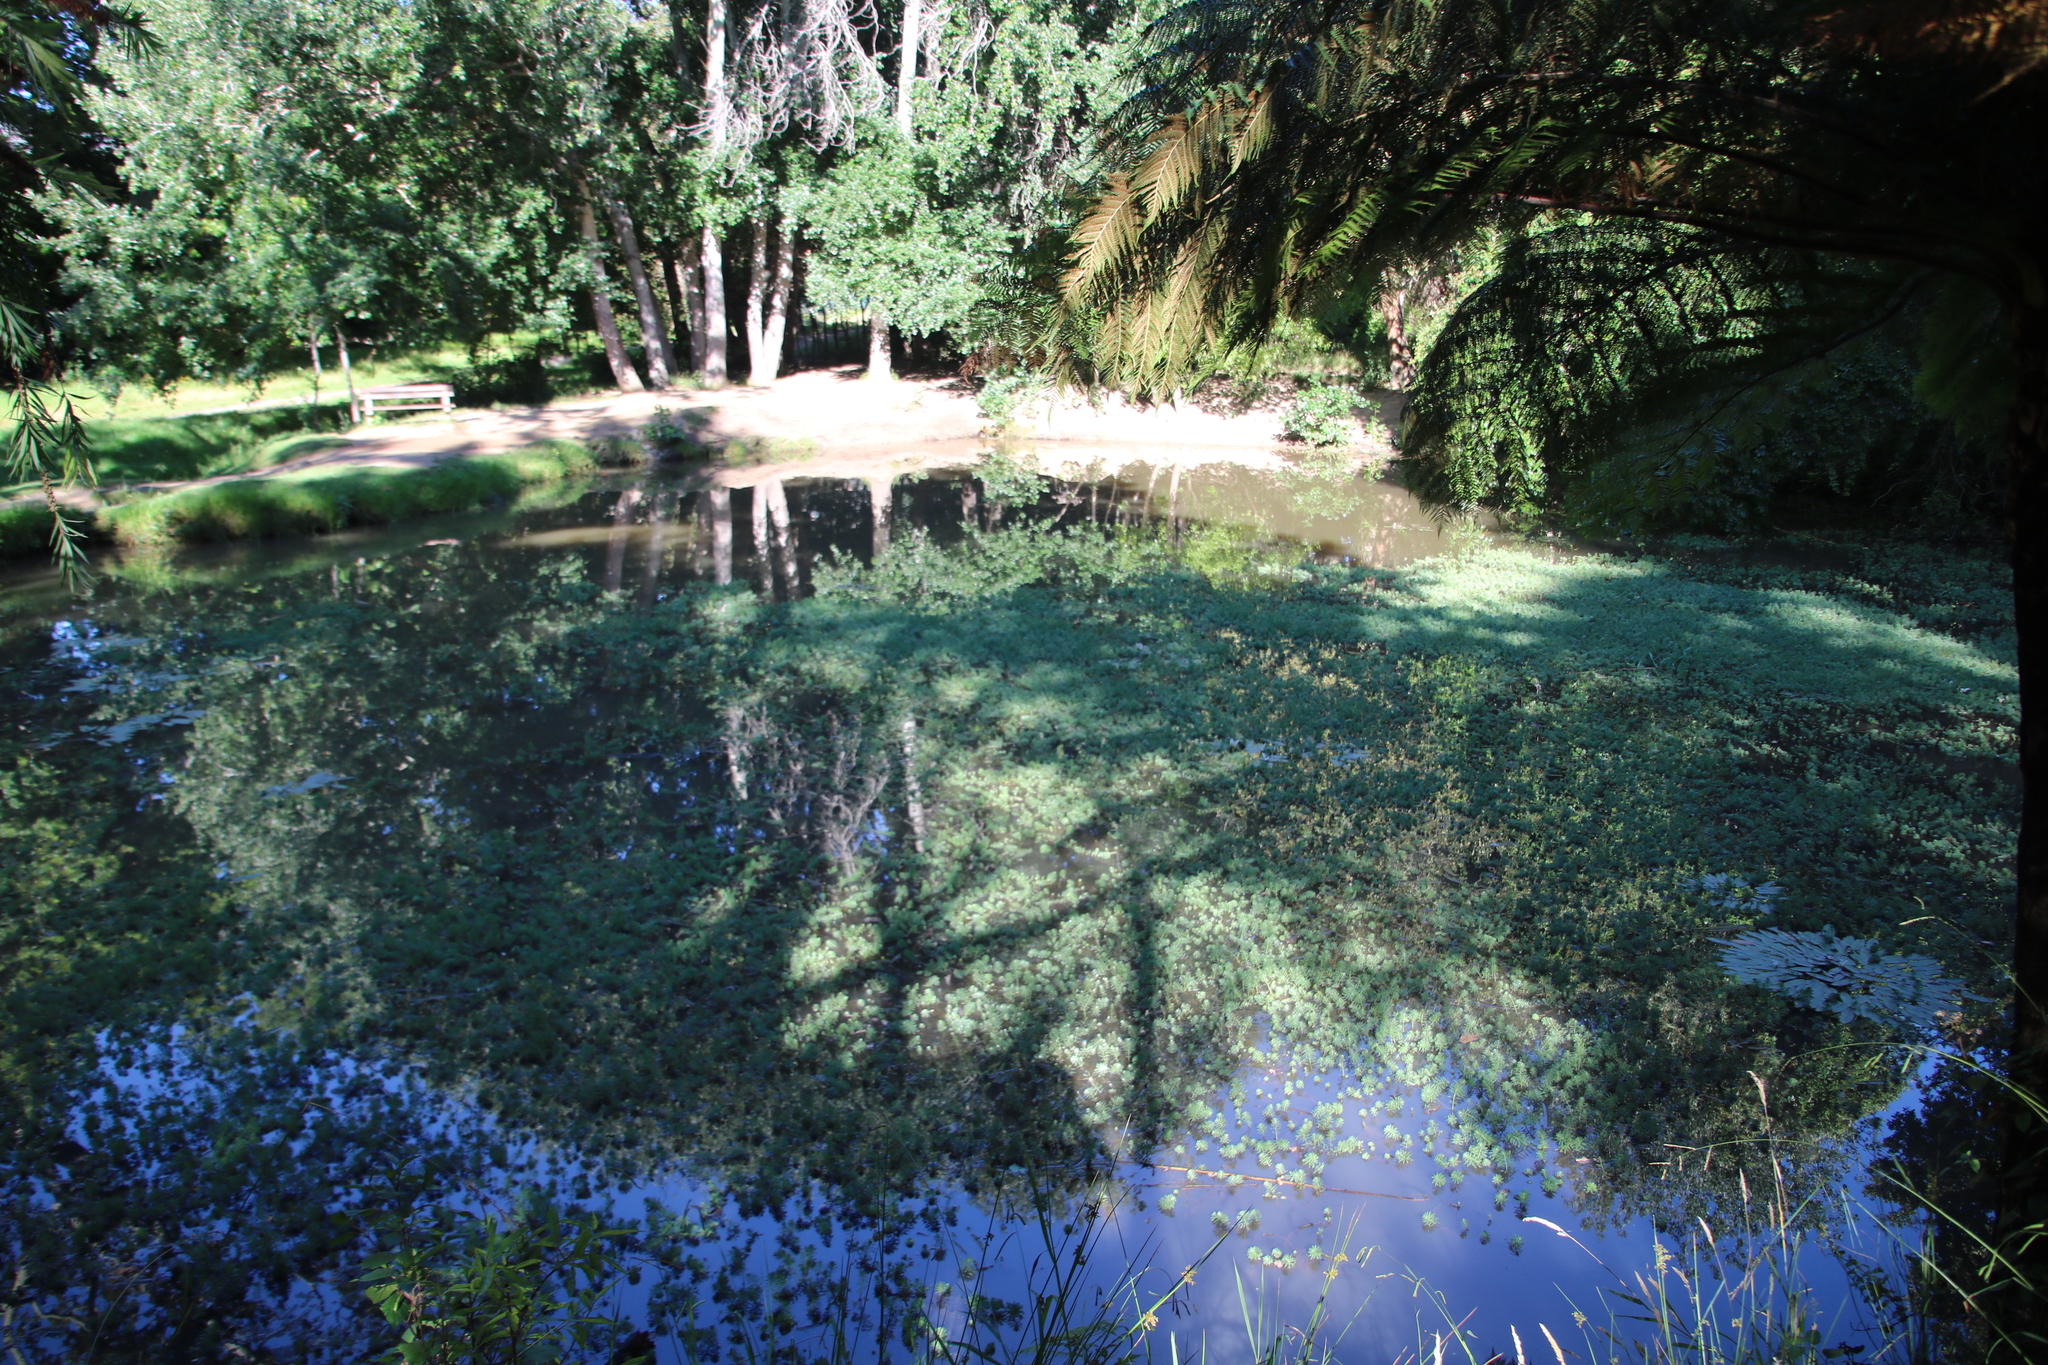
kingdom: Plantae
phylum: Tracheophyta
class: Magnoliopsida
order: Saxifragales
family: Haloragaceae
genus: Myriophyllum
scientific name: Myriophyllum aquaticum
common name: Parrot's feather
